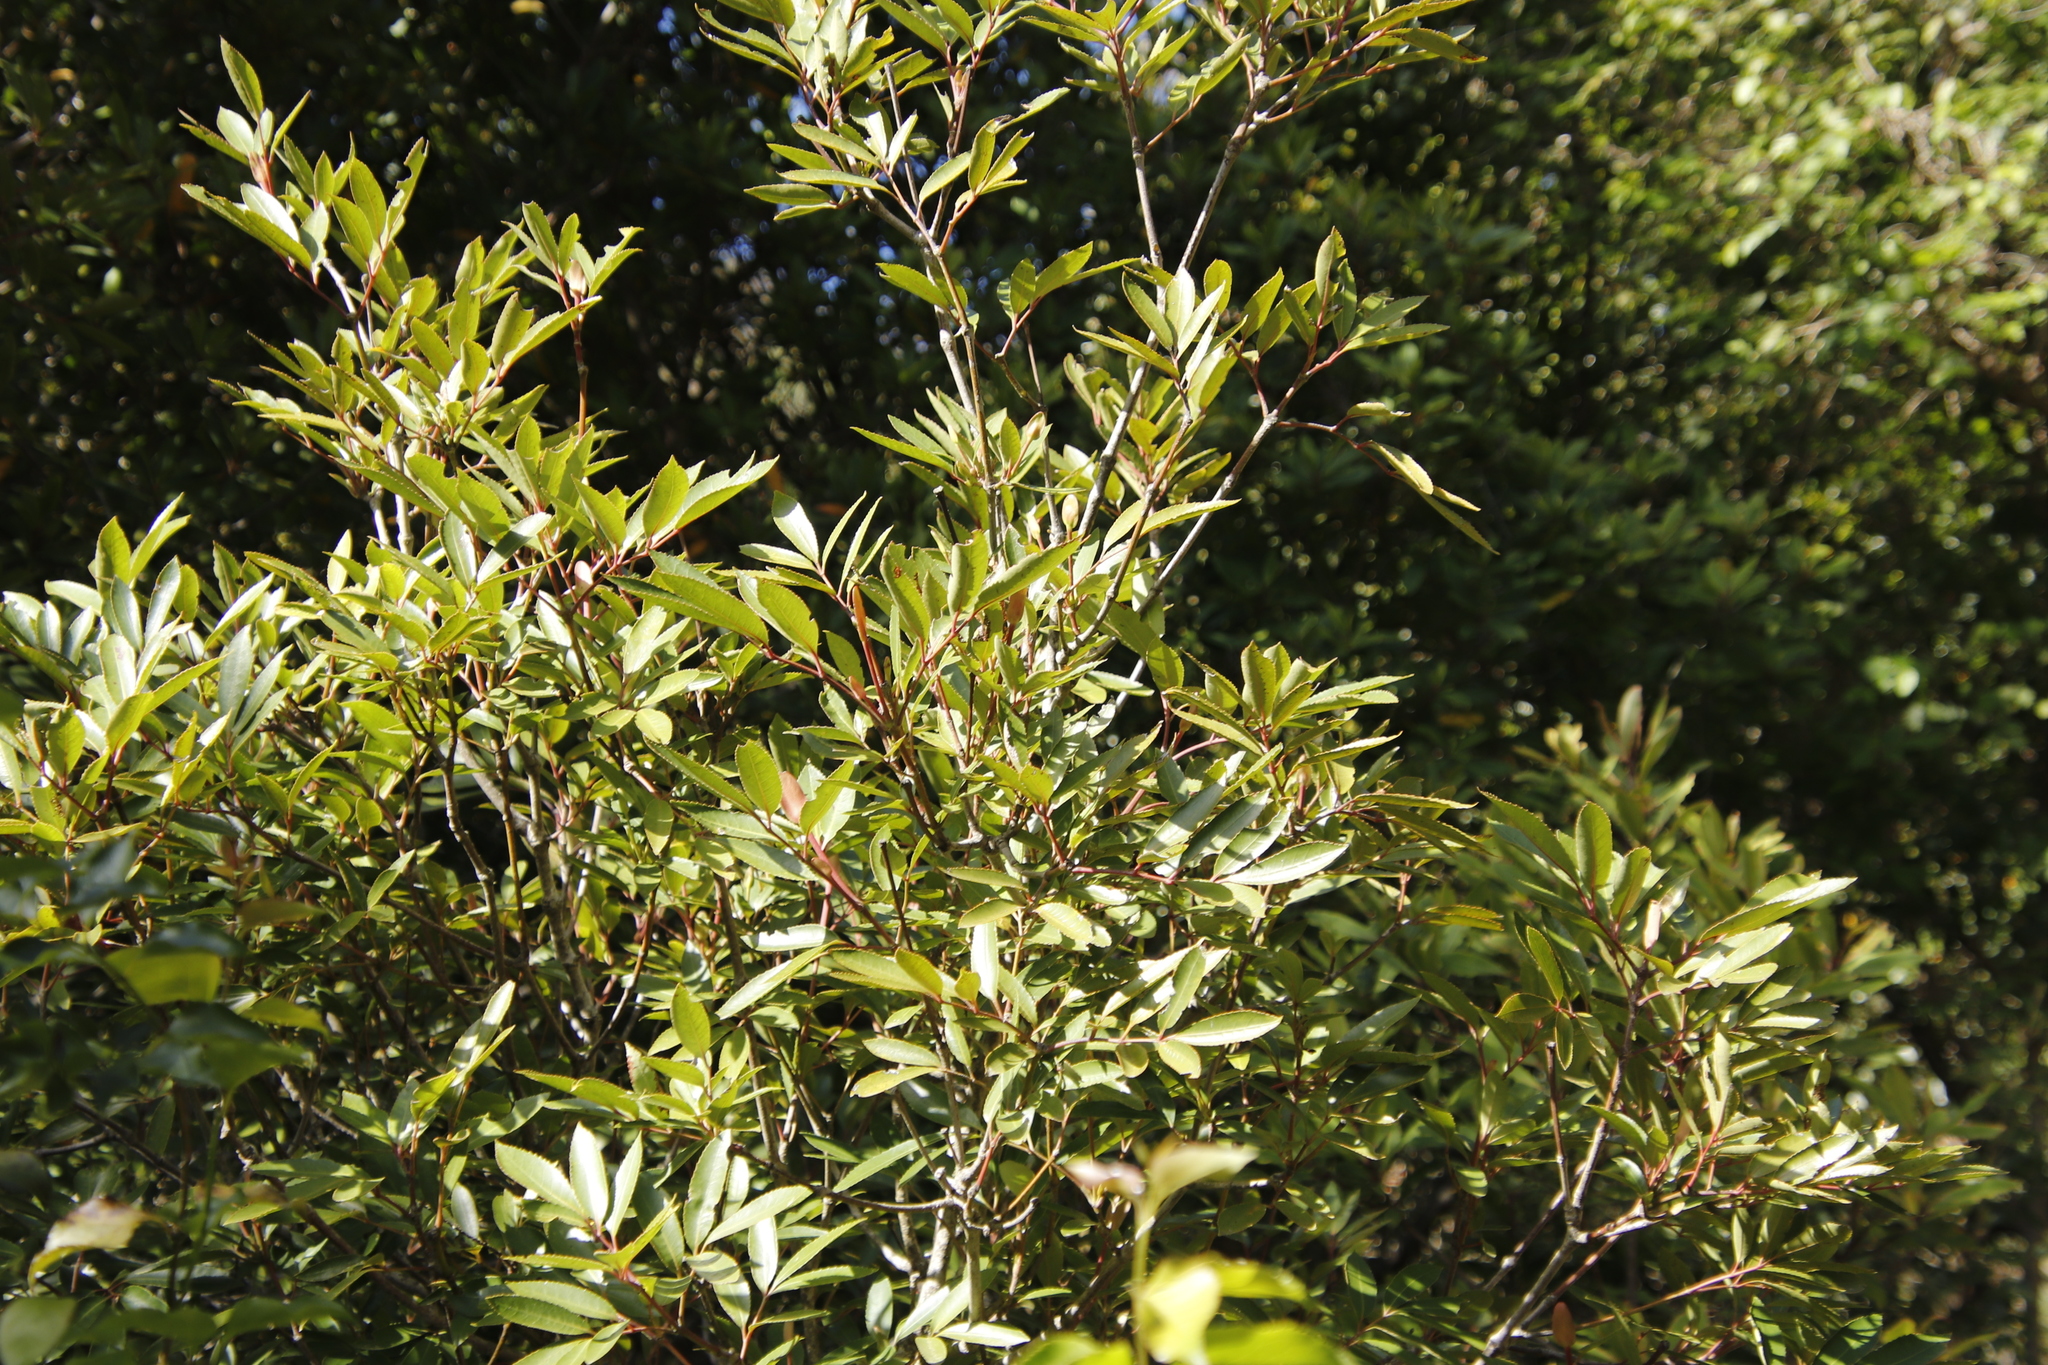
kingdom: Plantae
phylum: Tracheophyta
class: Magnoliopsida
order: Oxalidales
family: Cunoniaceae
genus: Cunonia
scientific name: Cunonia capensis
